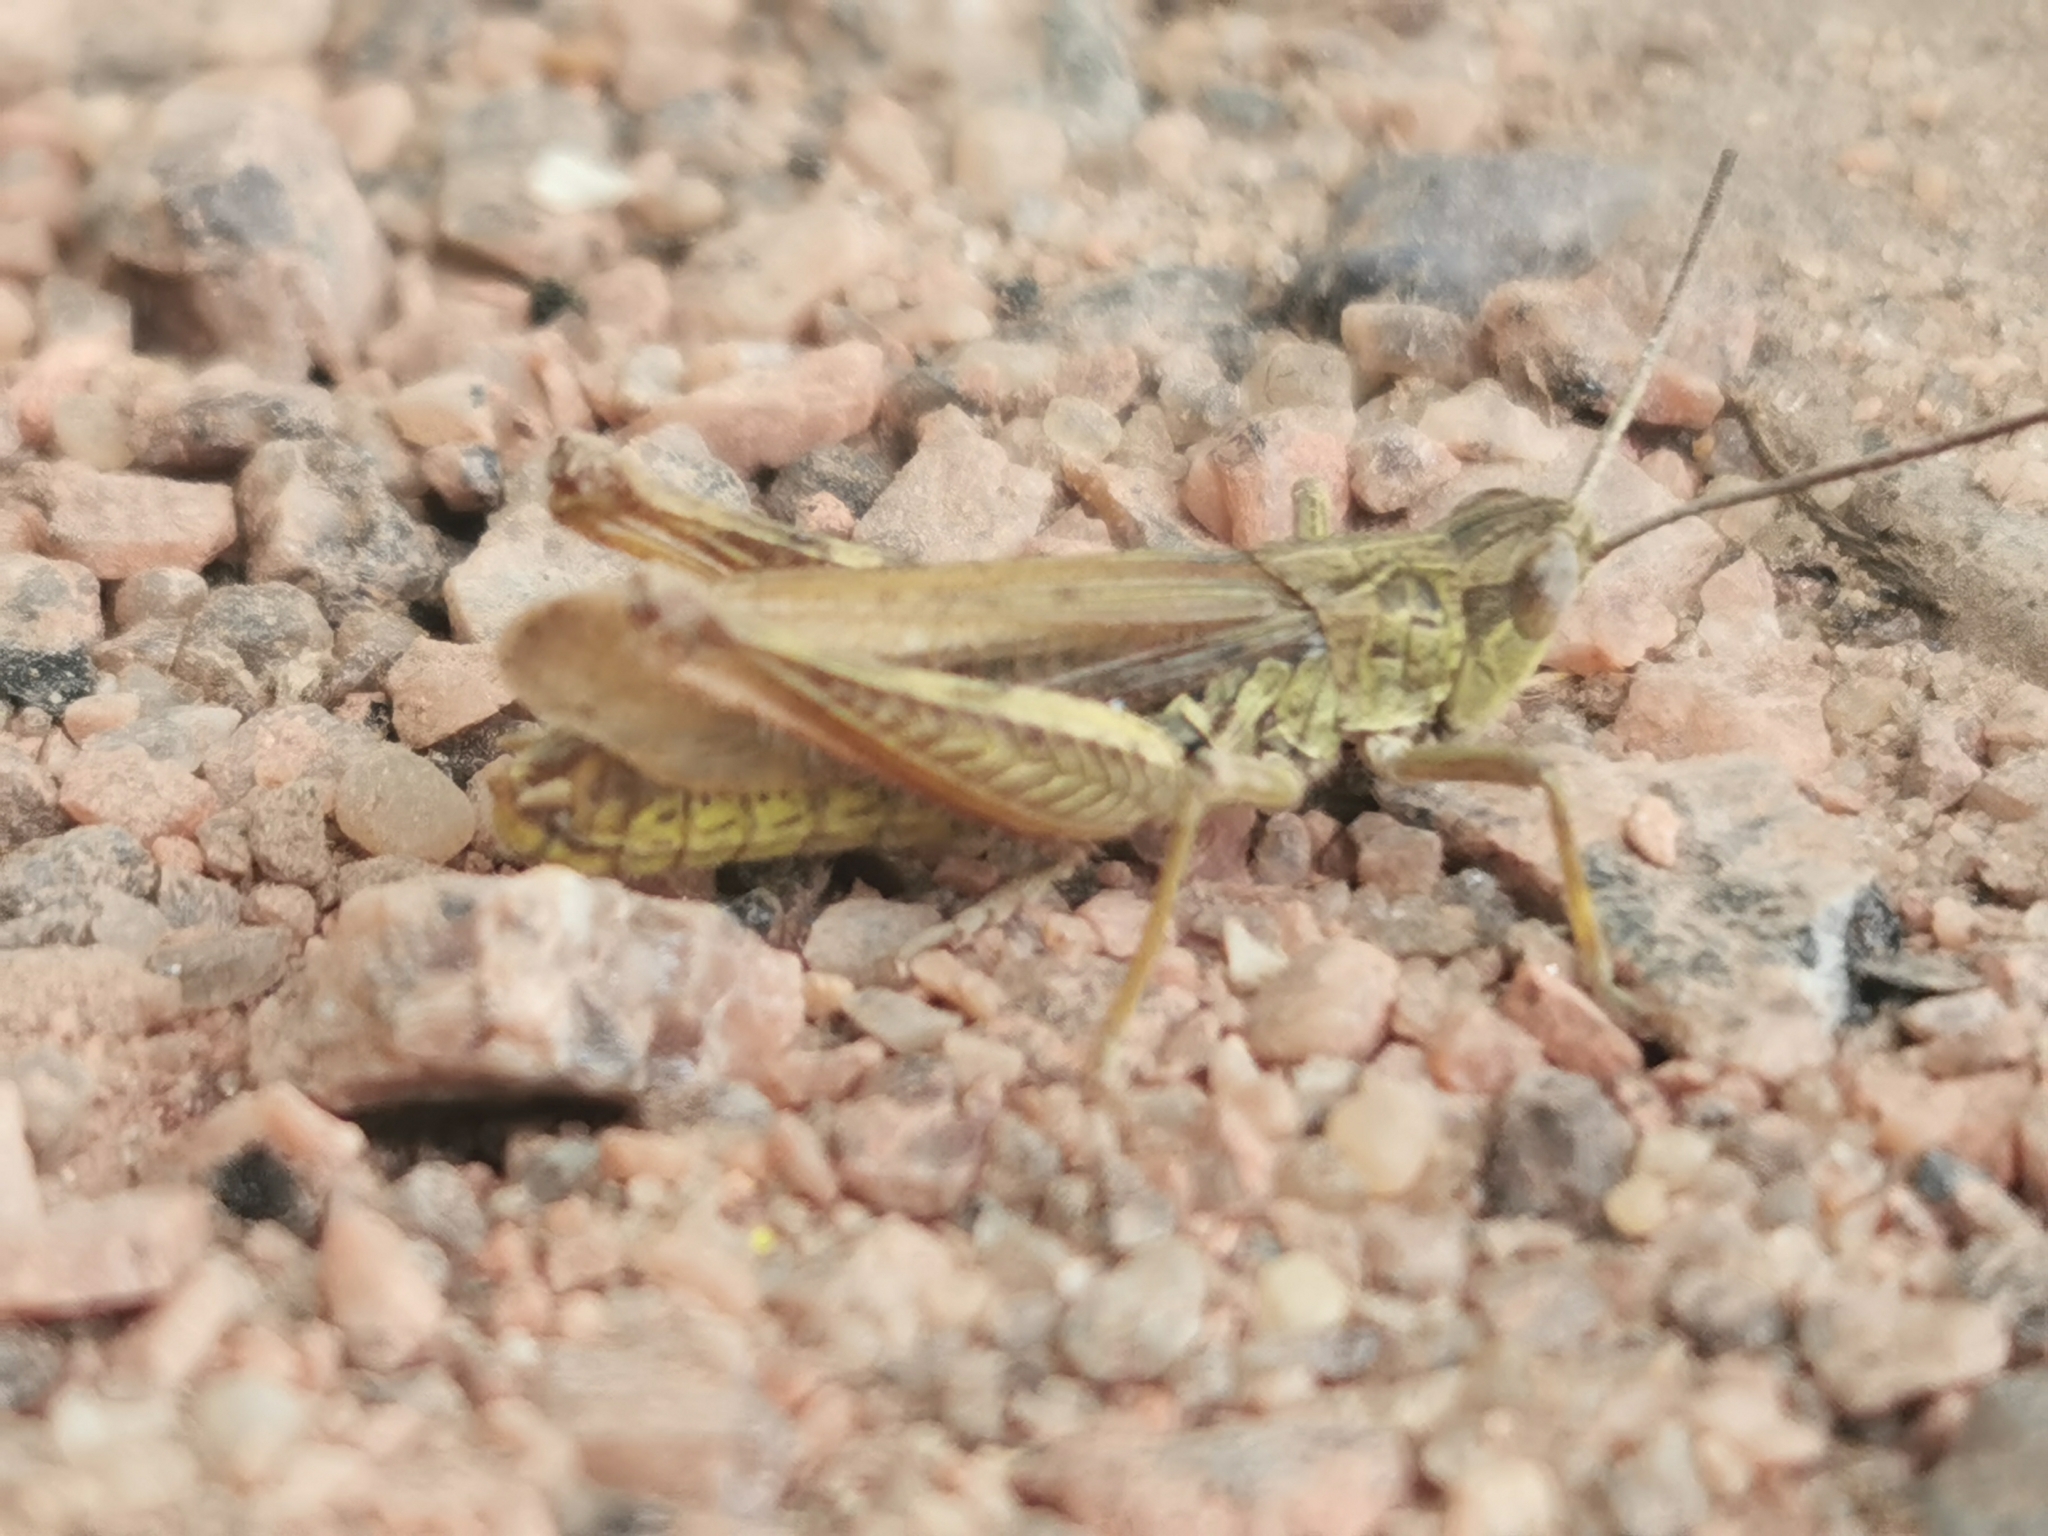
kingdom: Animalia
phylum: Arthropoda
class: Insecta
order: Orthoptera
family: Acrididae
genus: Chorthippus
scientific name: Chorthippus apricarius
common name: Upland field grasshopper
